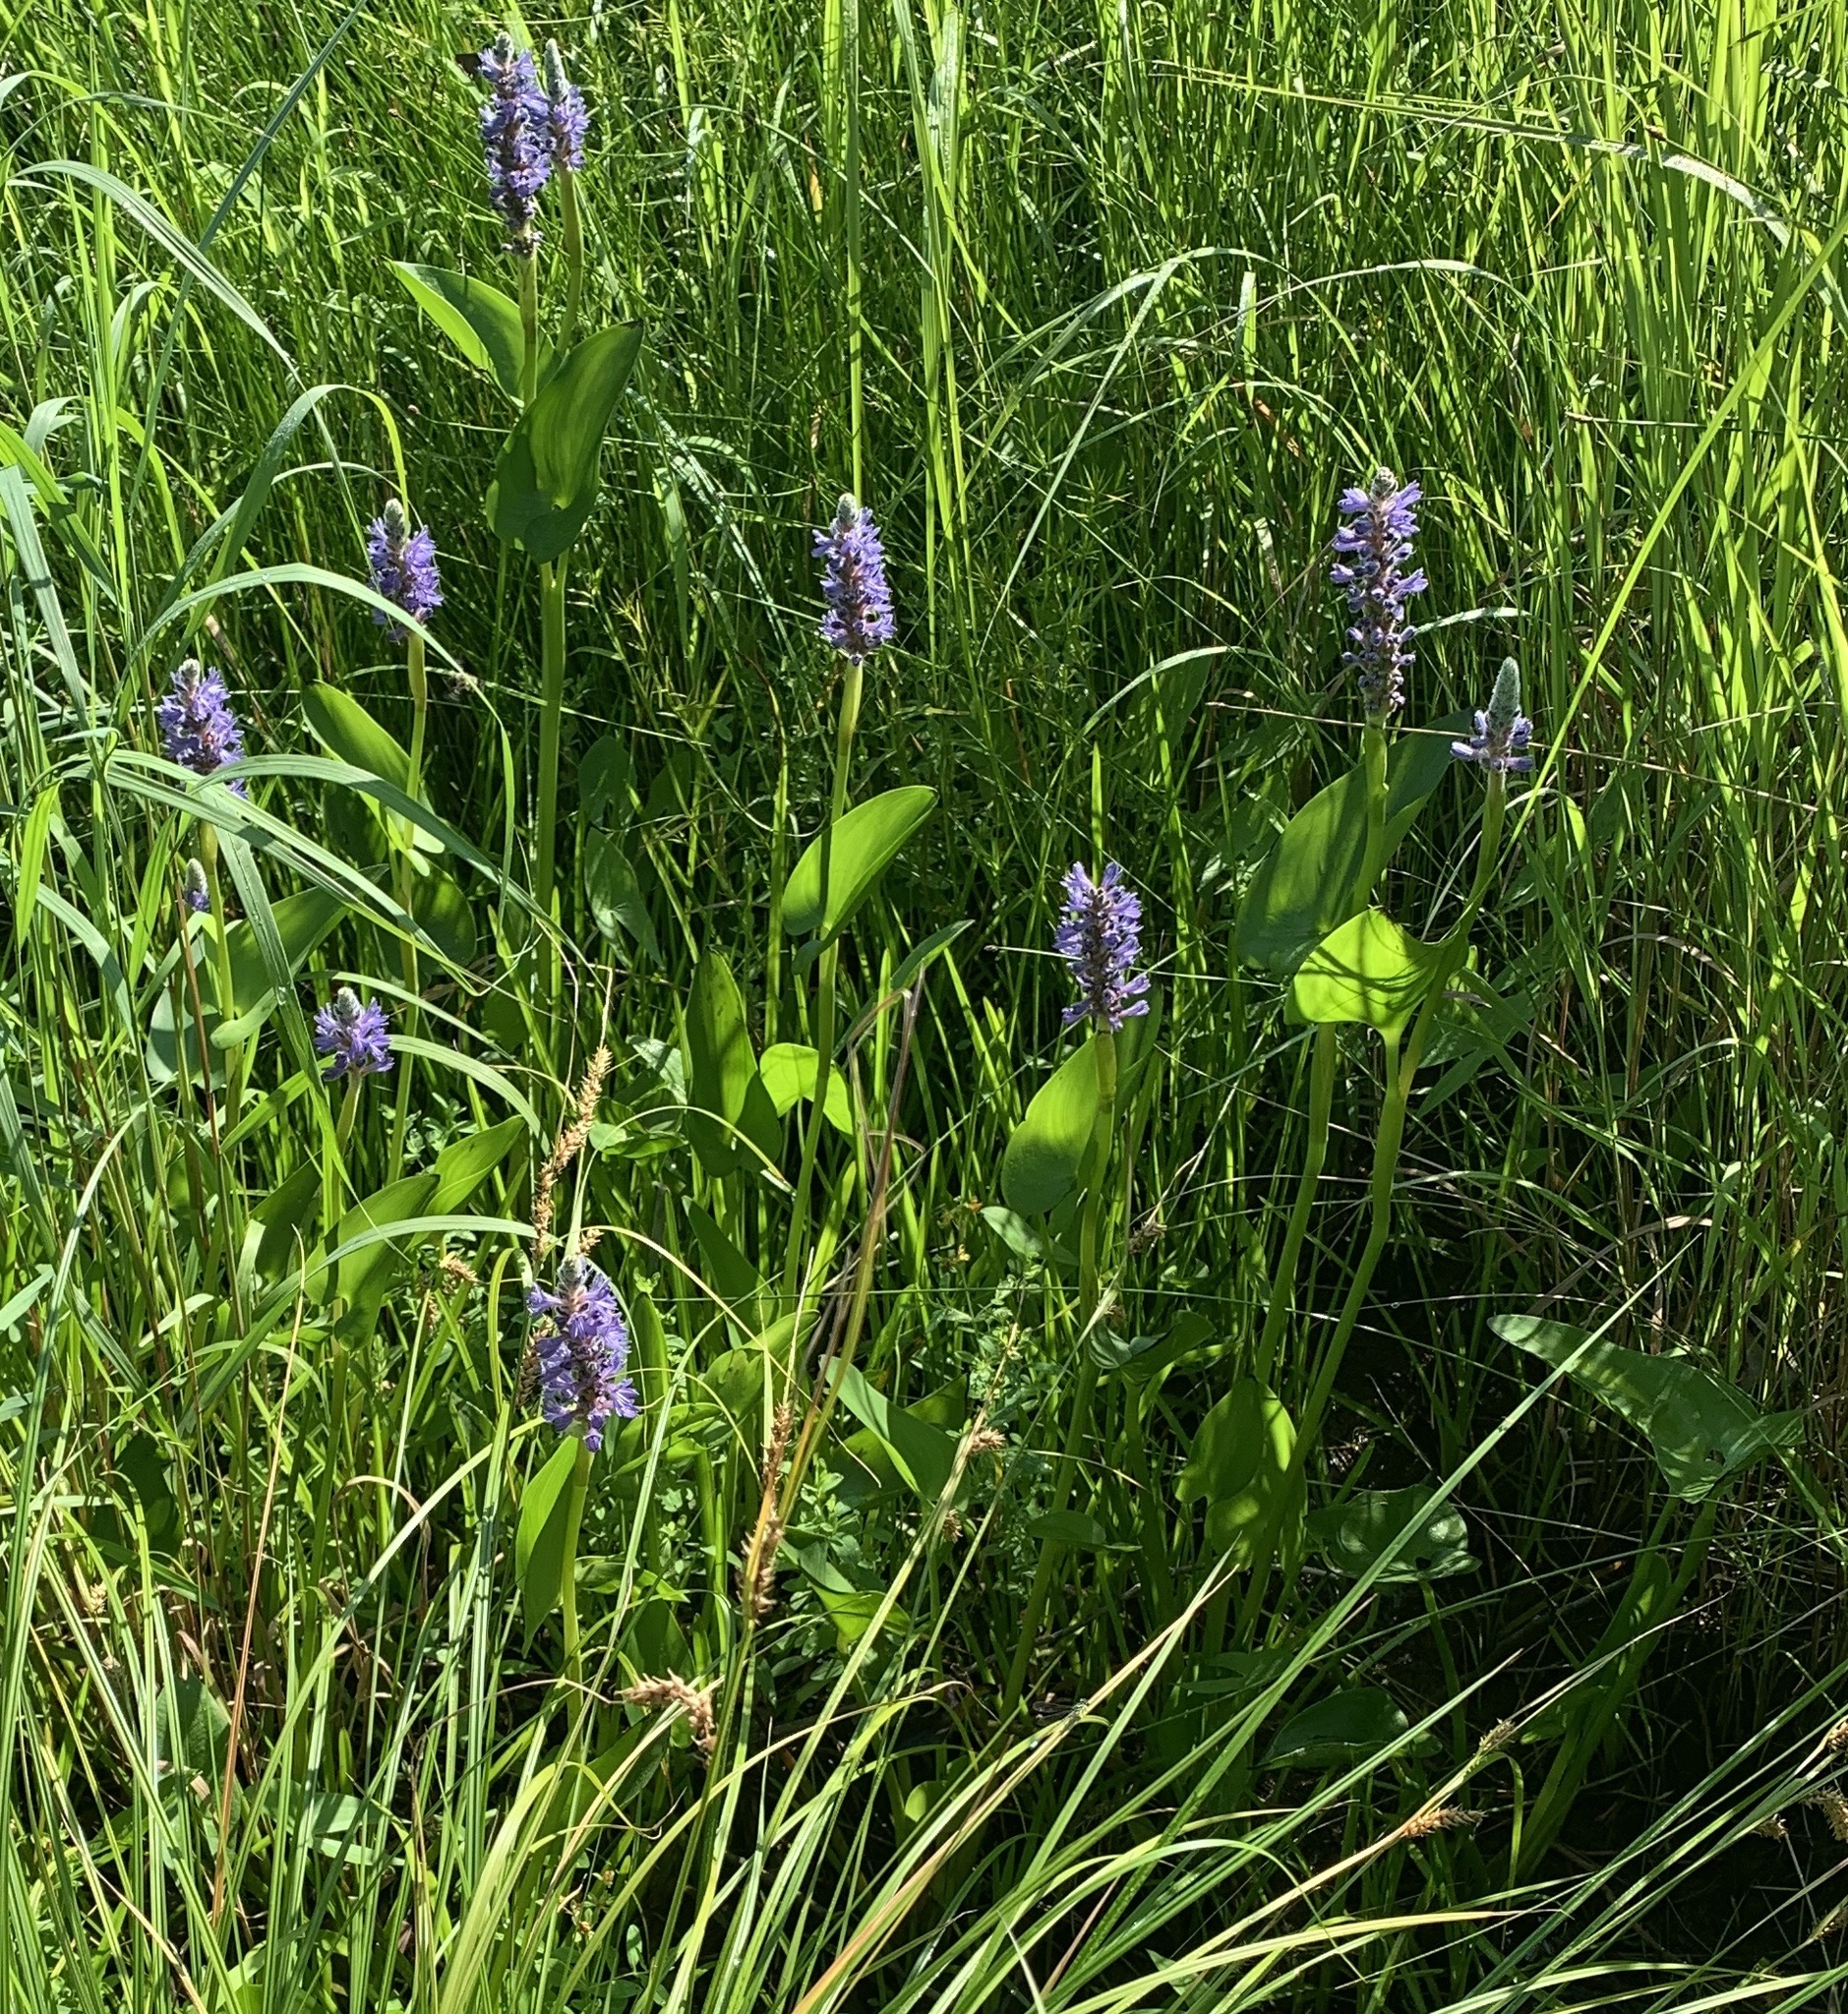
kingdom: Plantae
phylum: Tracheophyta
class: Liliopsida
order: Commelinales
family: Pontederiaceae
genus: Pontederia
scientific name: Pontederia cordata
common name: Pickerelweed
